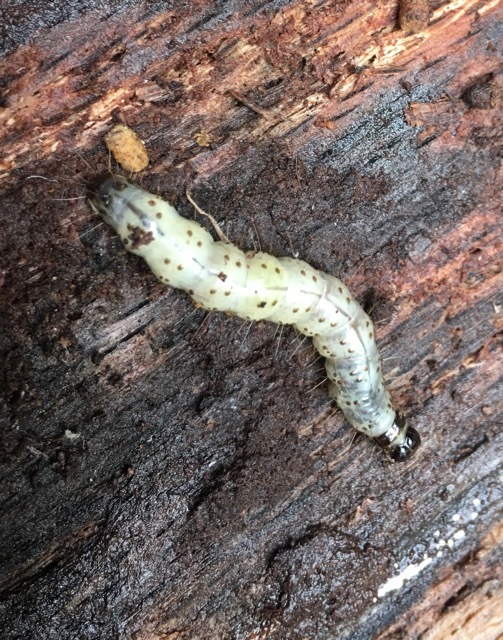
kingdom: Animalia
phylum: Arthropoda
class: Insecta
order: Lepidoptera
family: Erebidae
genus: Scolecocampa
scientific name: Scolecocampa liburna
